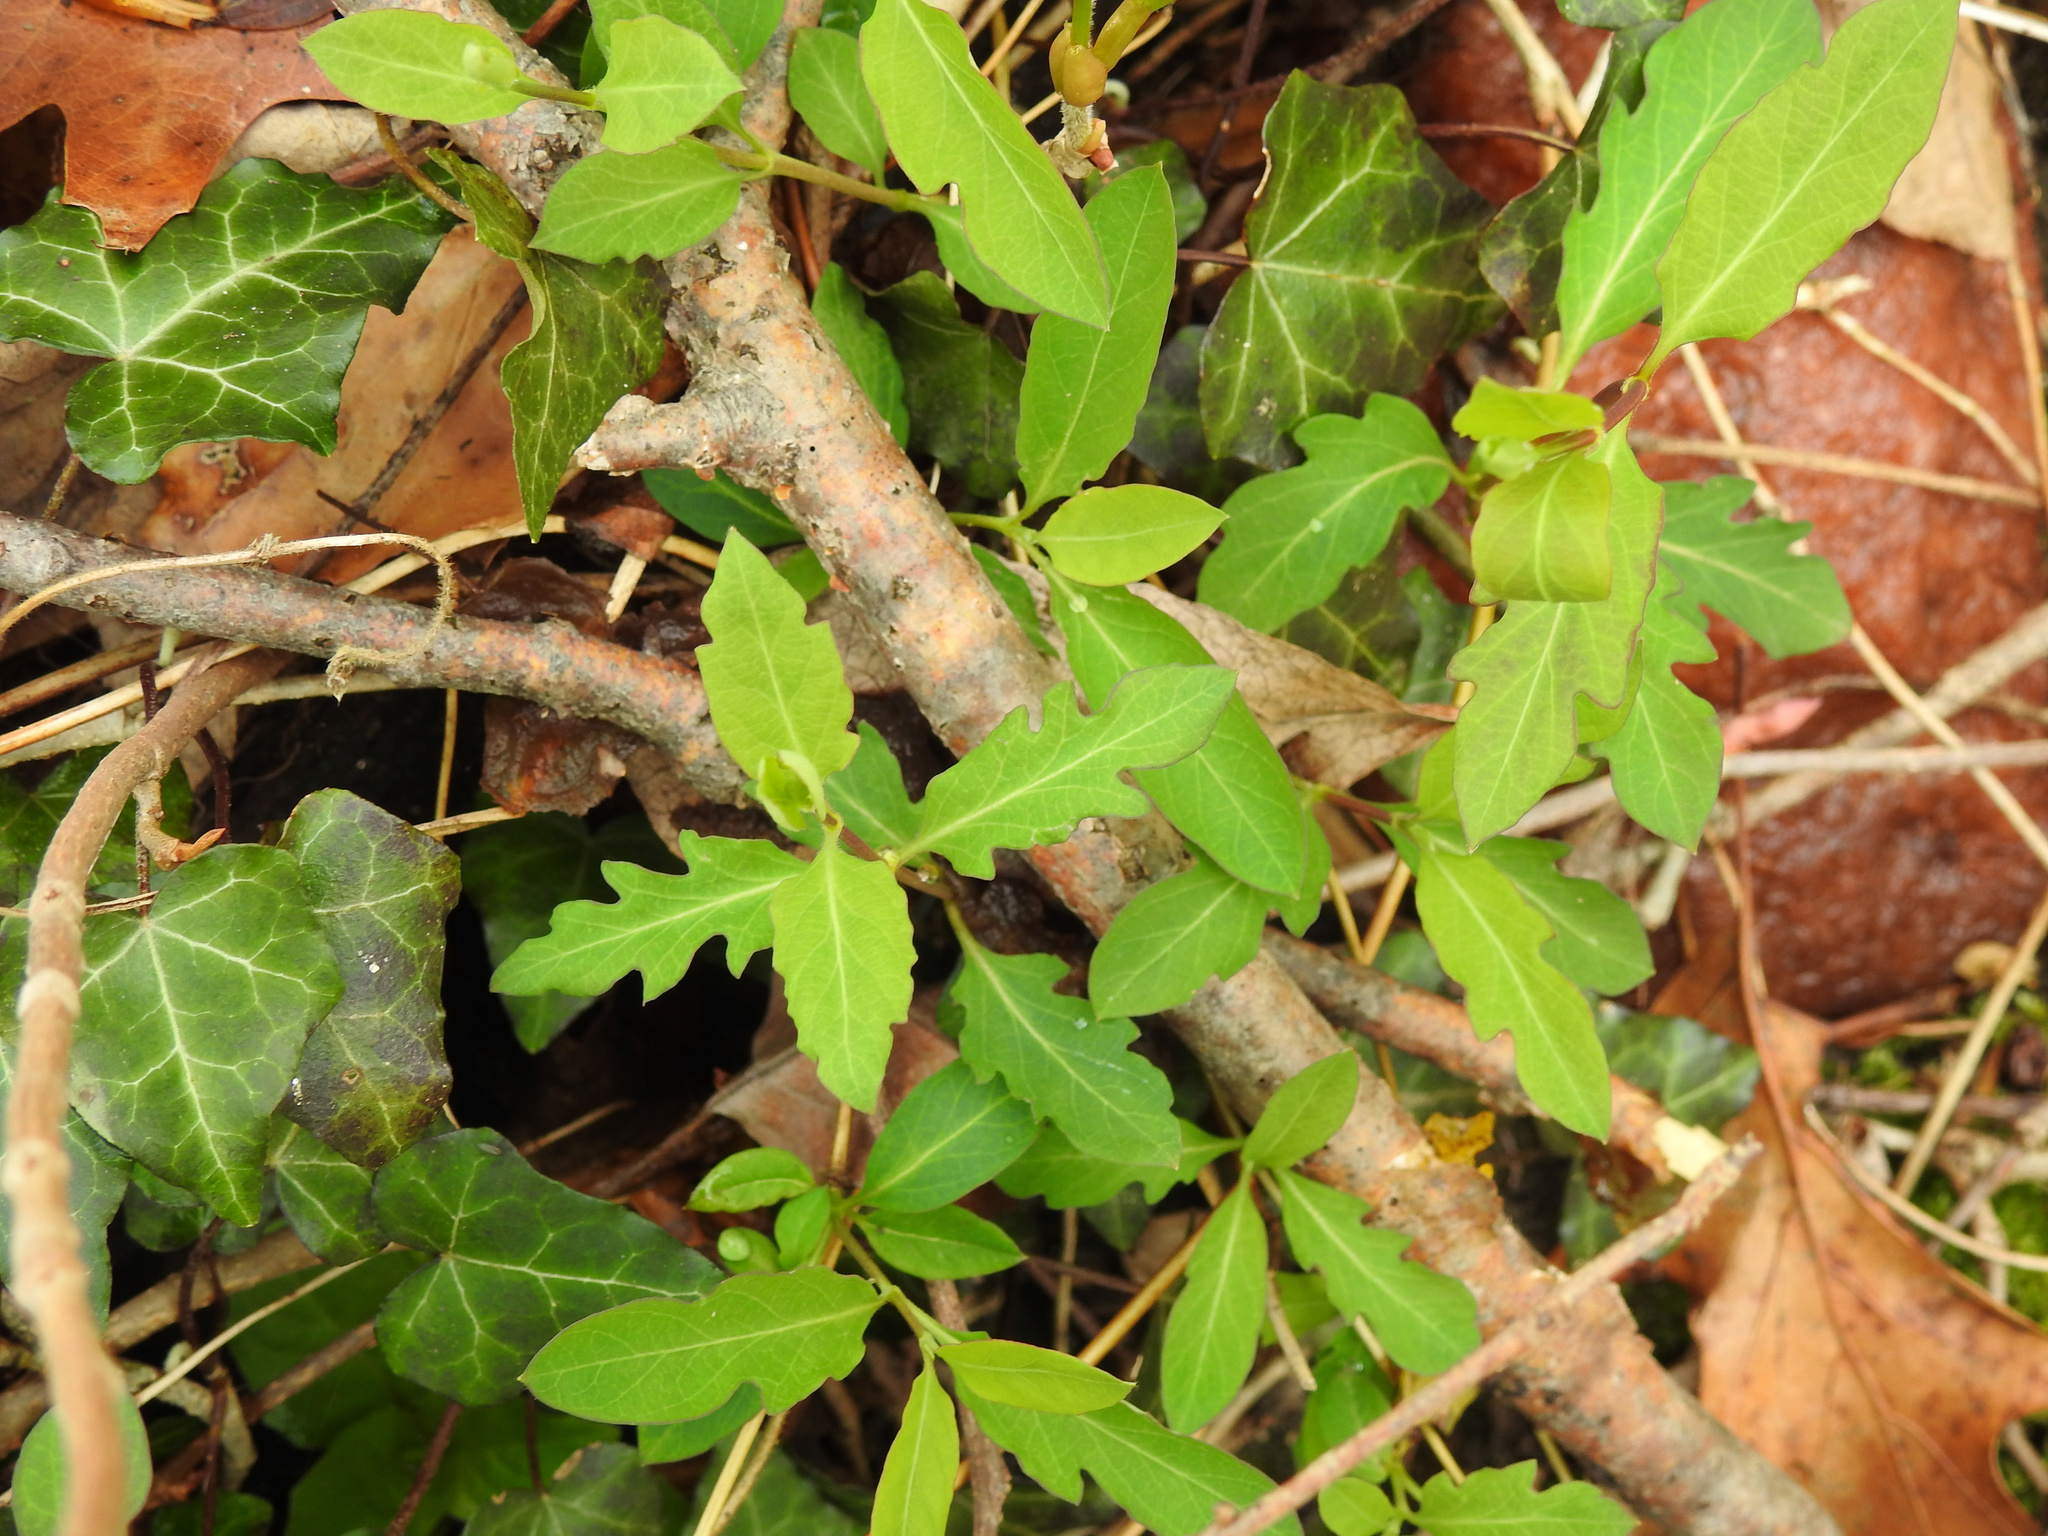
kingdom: Plantae
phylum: Tracheophyta
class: Magnoliopsida
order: Dipsacales
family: Caprifoliaceae
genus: Lonicera
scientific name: Lonicera japonica
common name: Japanese honeysuckle
